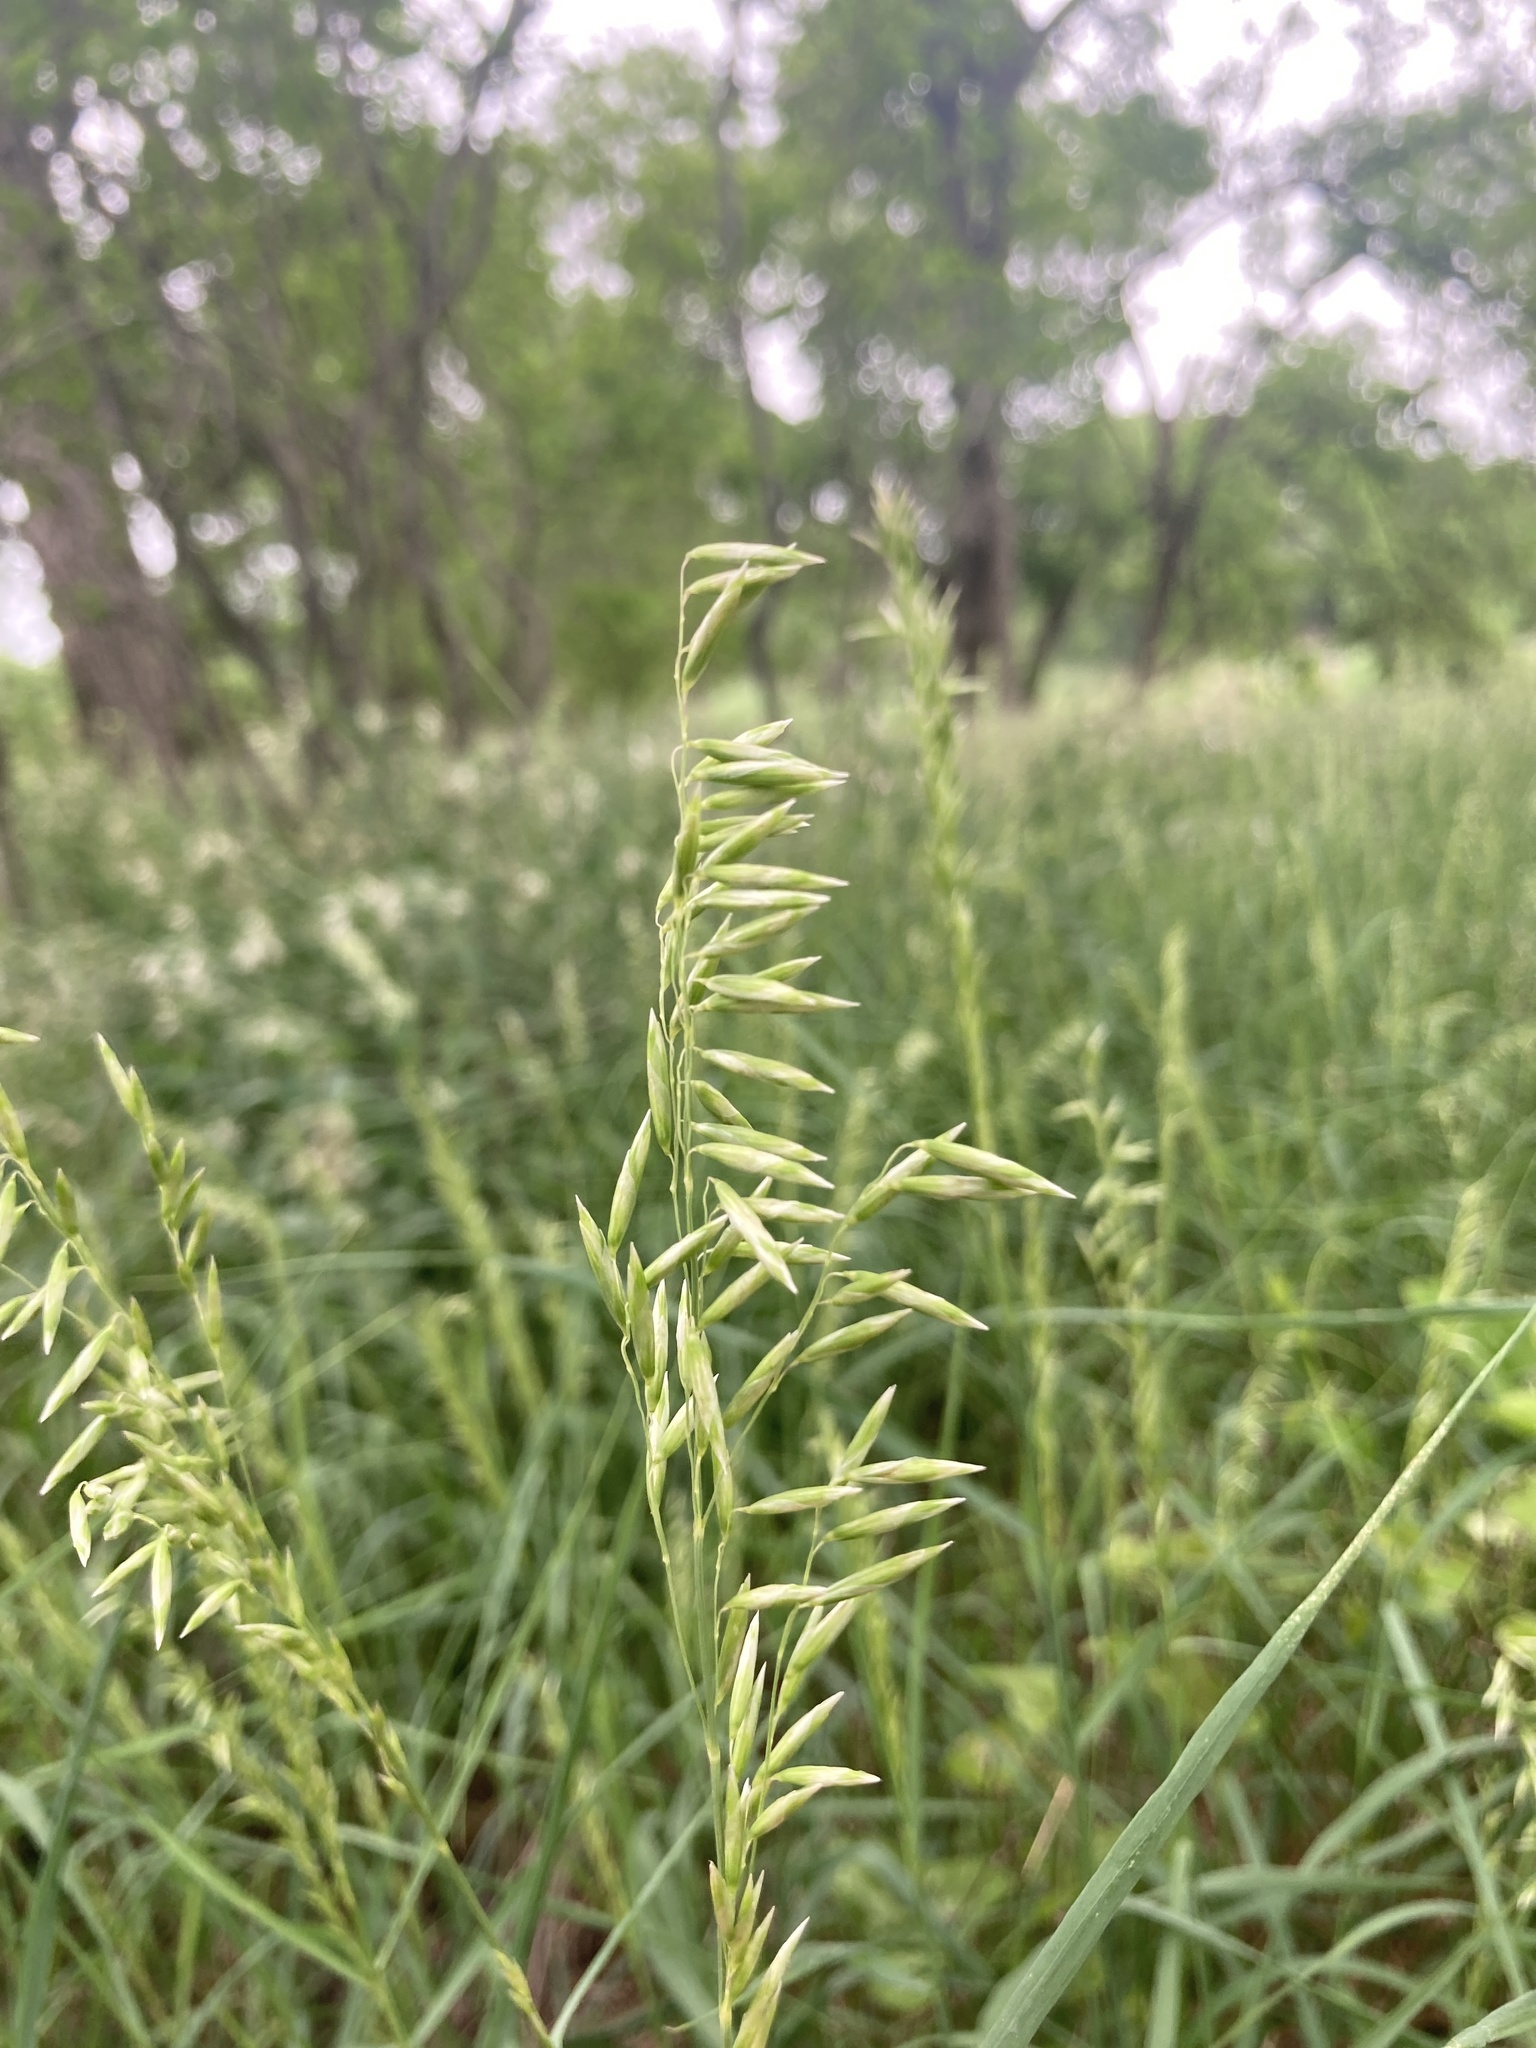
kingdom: Plantae
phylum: Tracheophyta
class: Liliopsida
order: Poales
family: Poaceae
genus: Melica
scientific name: Melica nitens
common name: Three-flower melic
